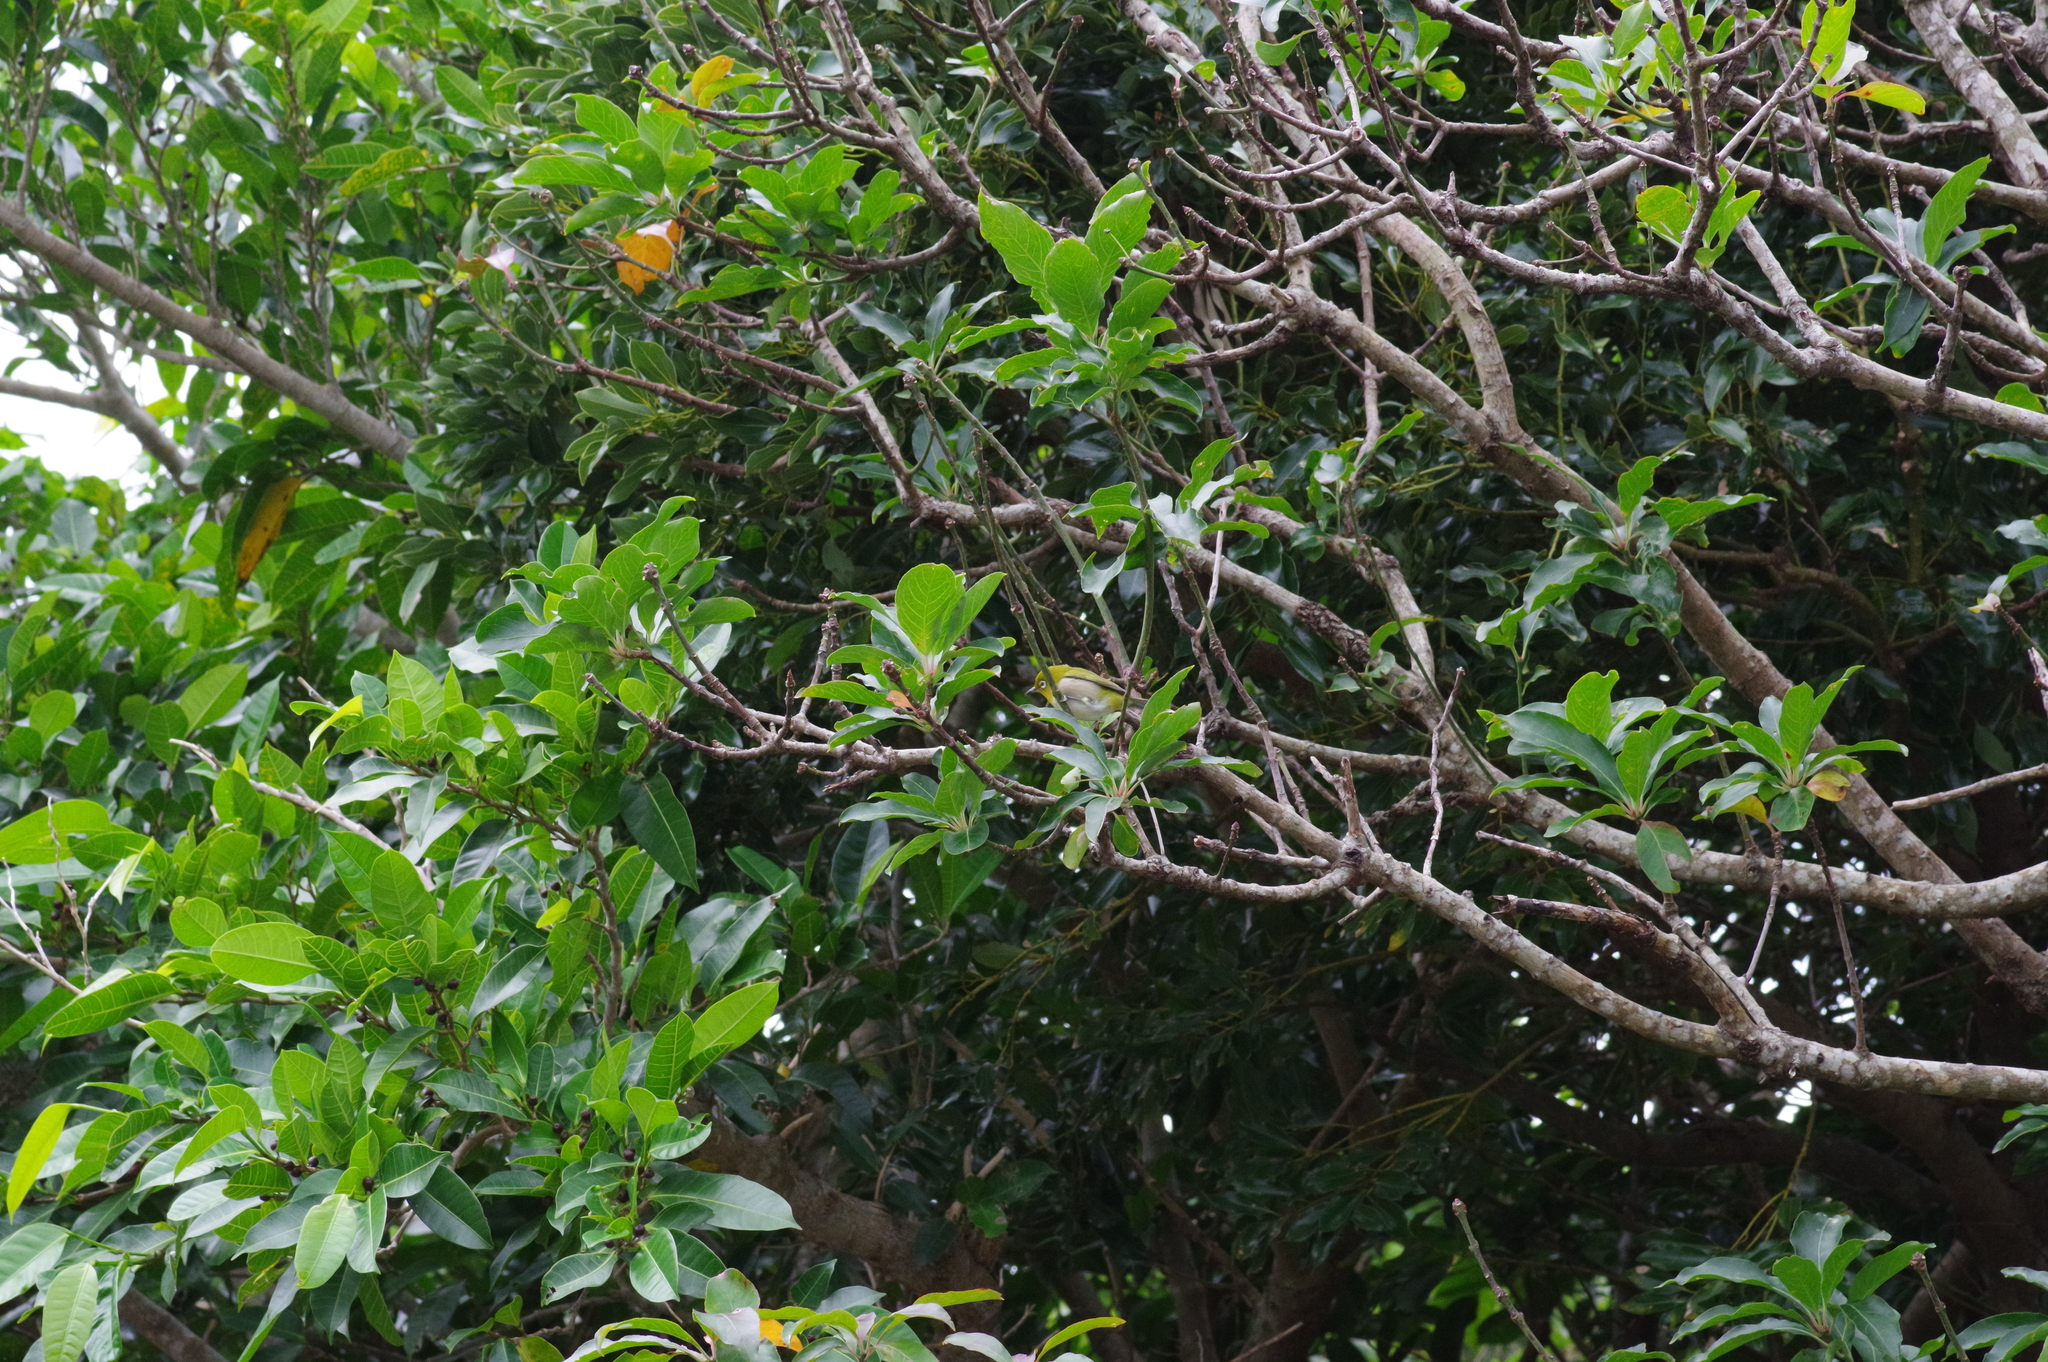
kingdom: Animalia
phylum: Chordata
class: Aves
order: Passeriformes
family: Zosteropidae
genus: Zosterops
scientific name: Zosterops japonicus
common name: Japanese white-eye
